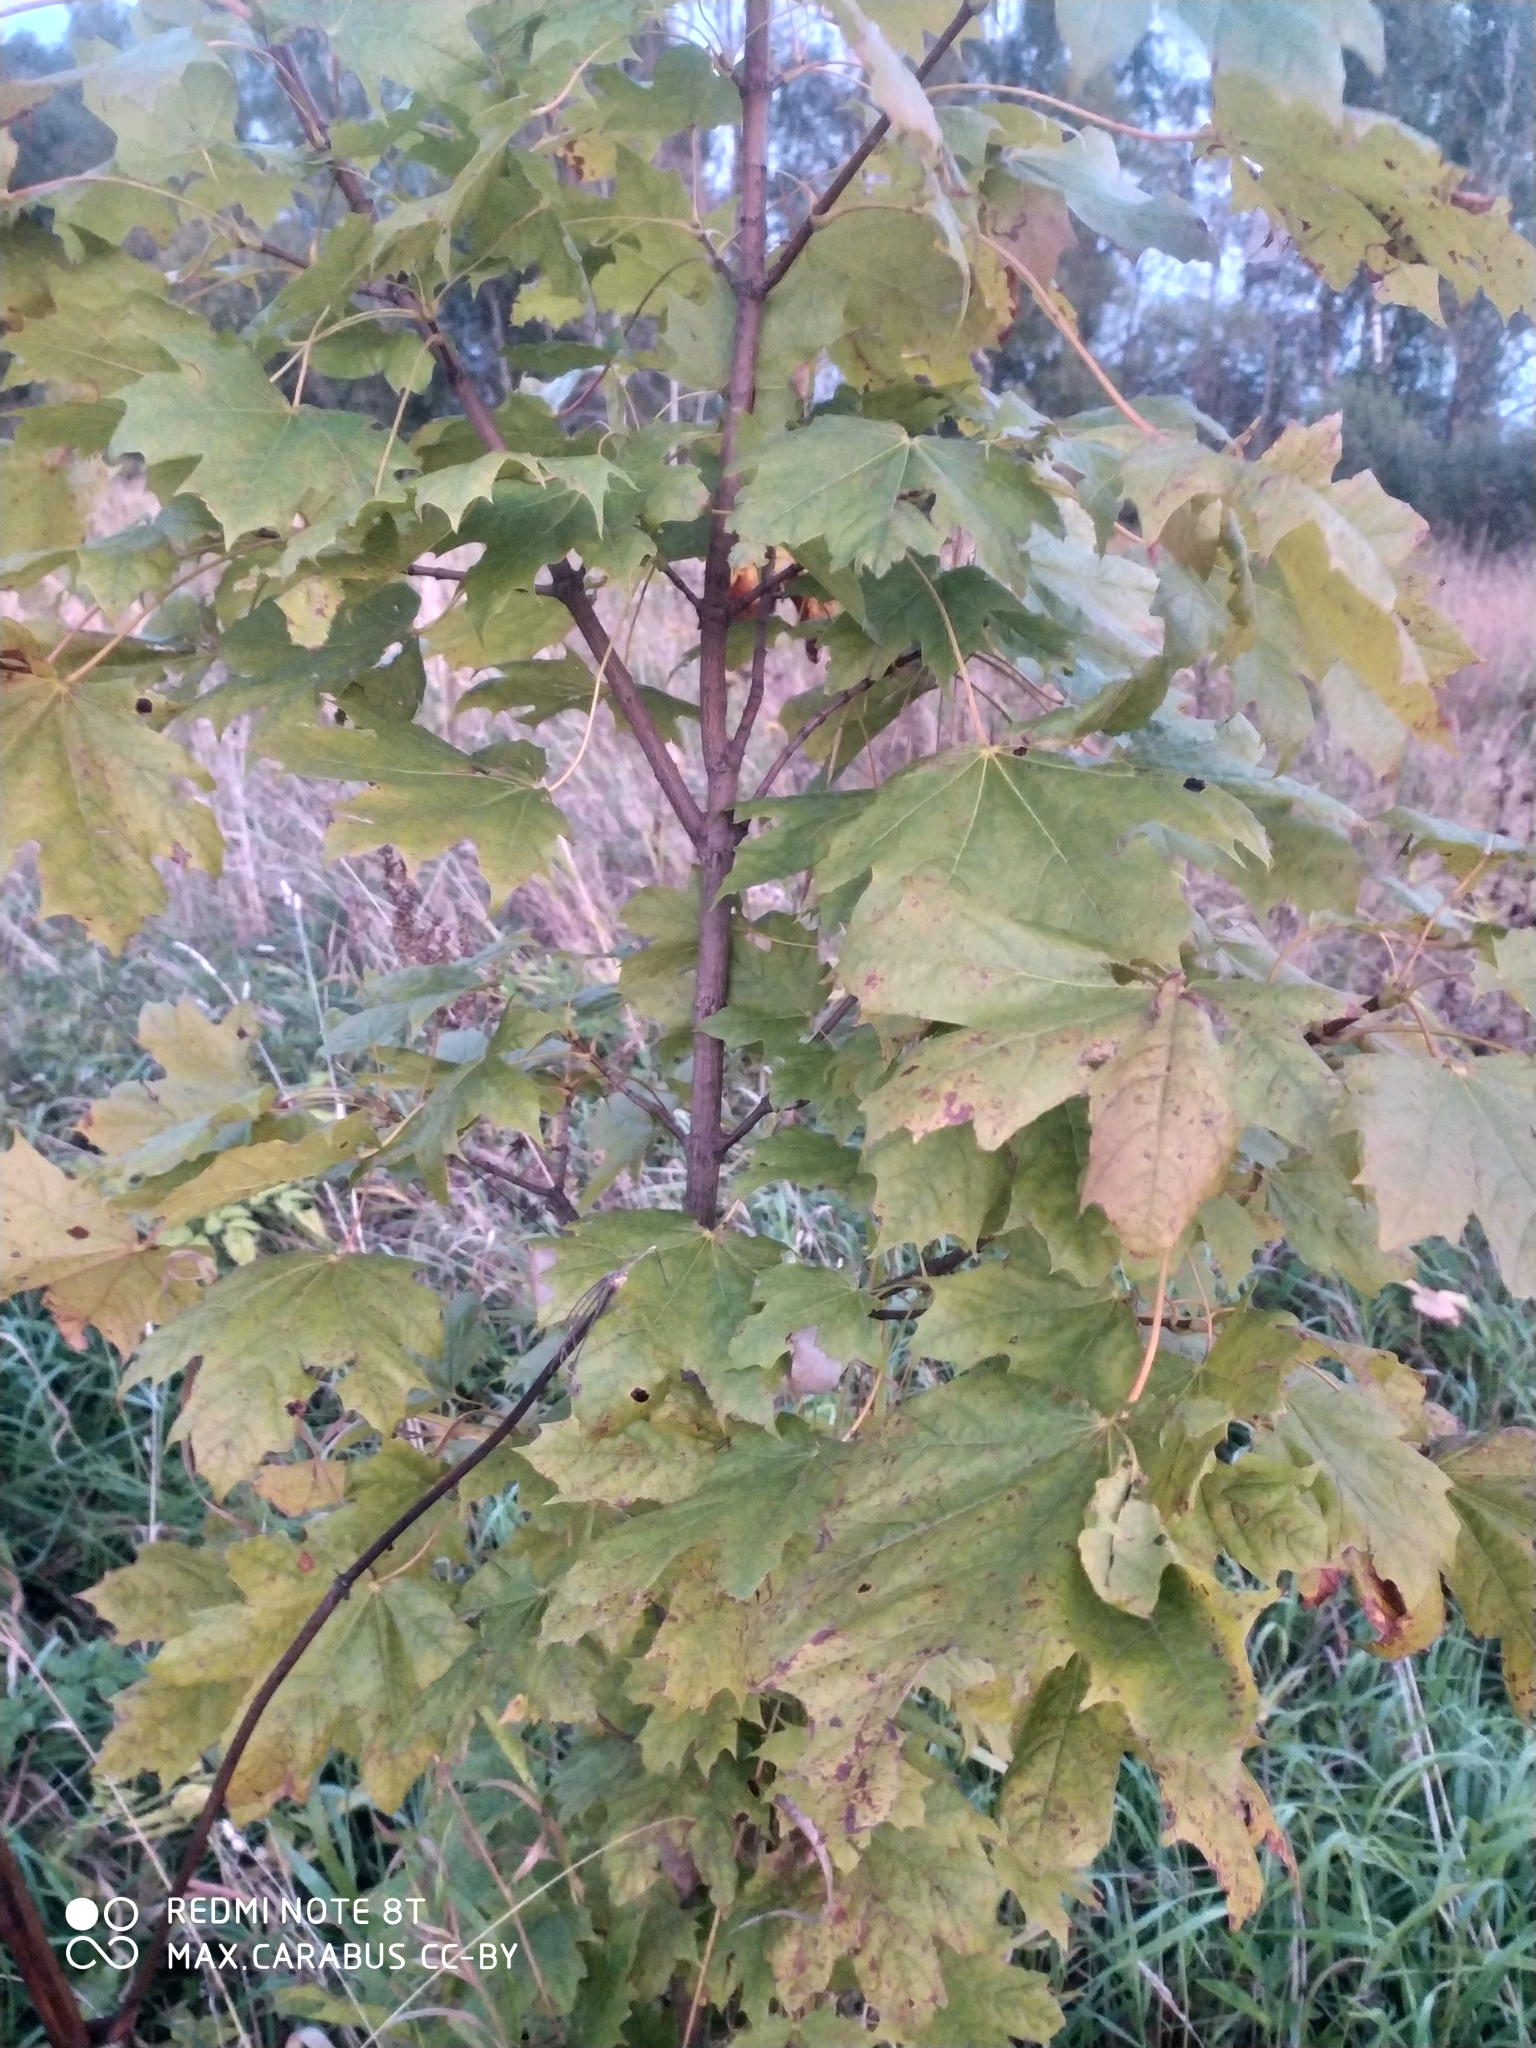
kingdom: Plantae
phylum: Tracheophyta
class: Magnoliopsida
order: Sapindales
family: Sapindaceae
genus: Acer
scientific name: Acer platanoides
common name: Norway maple
